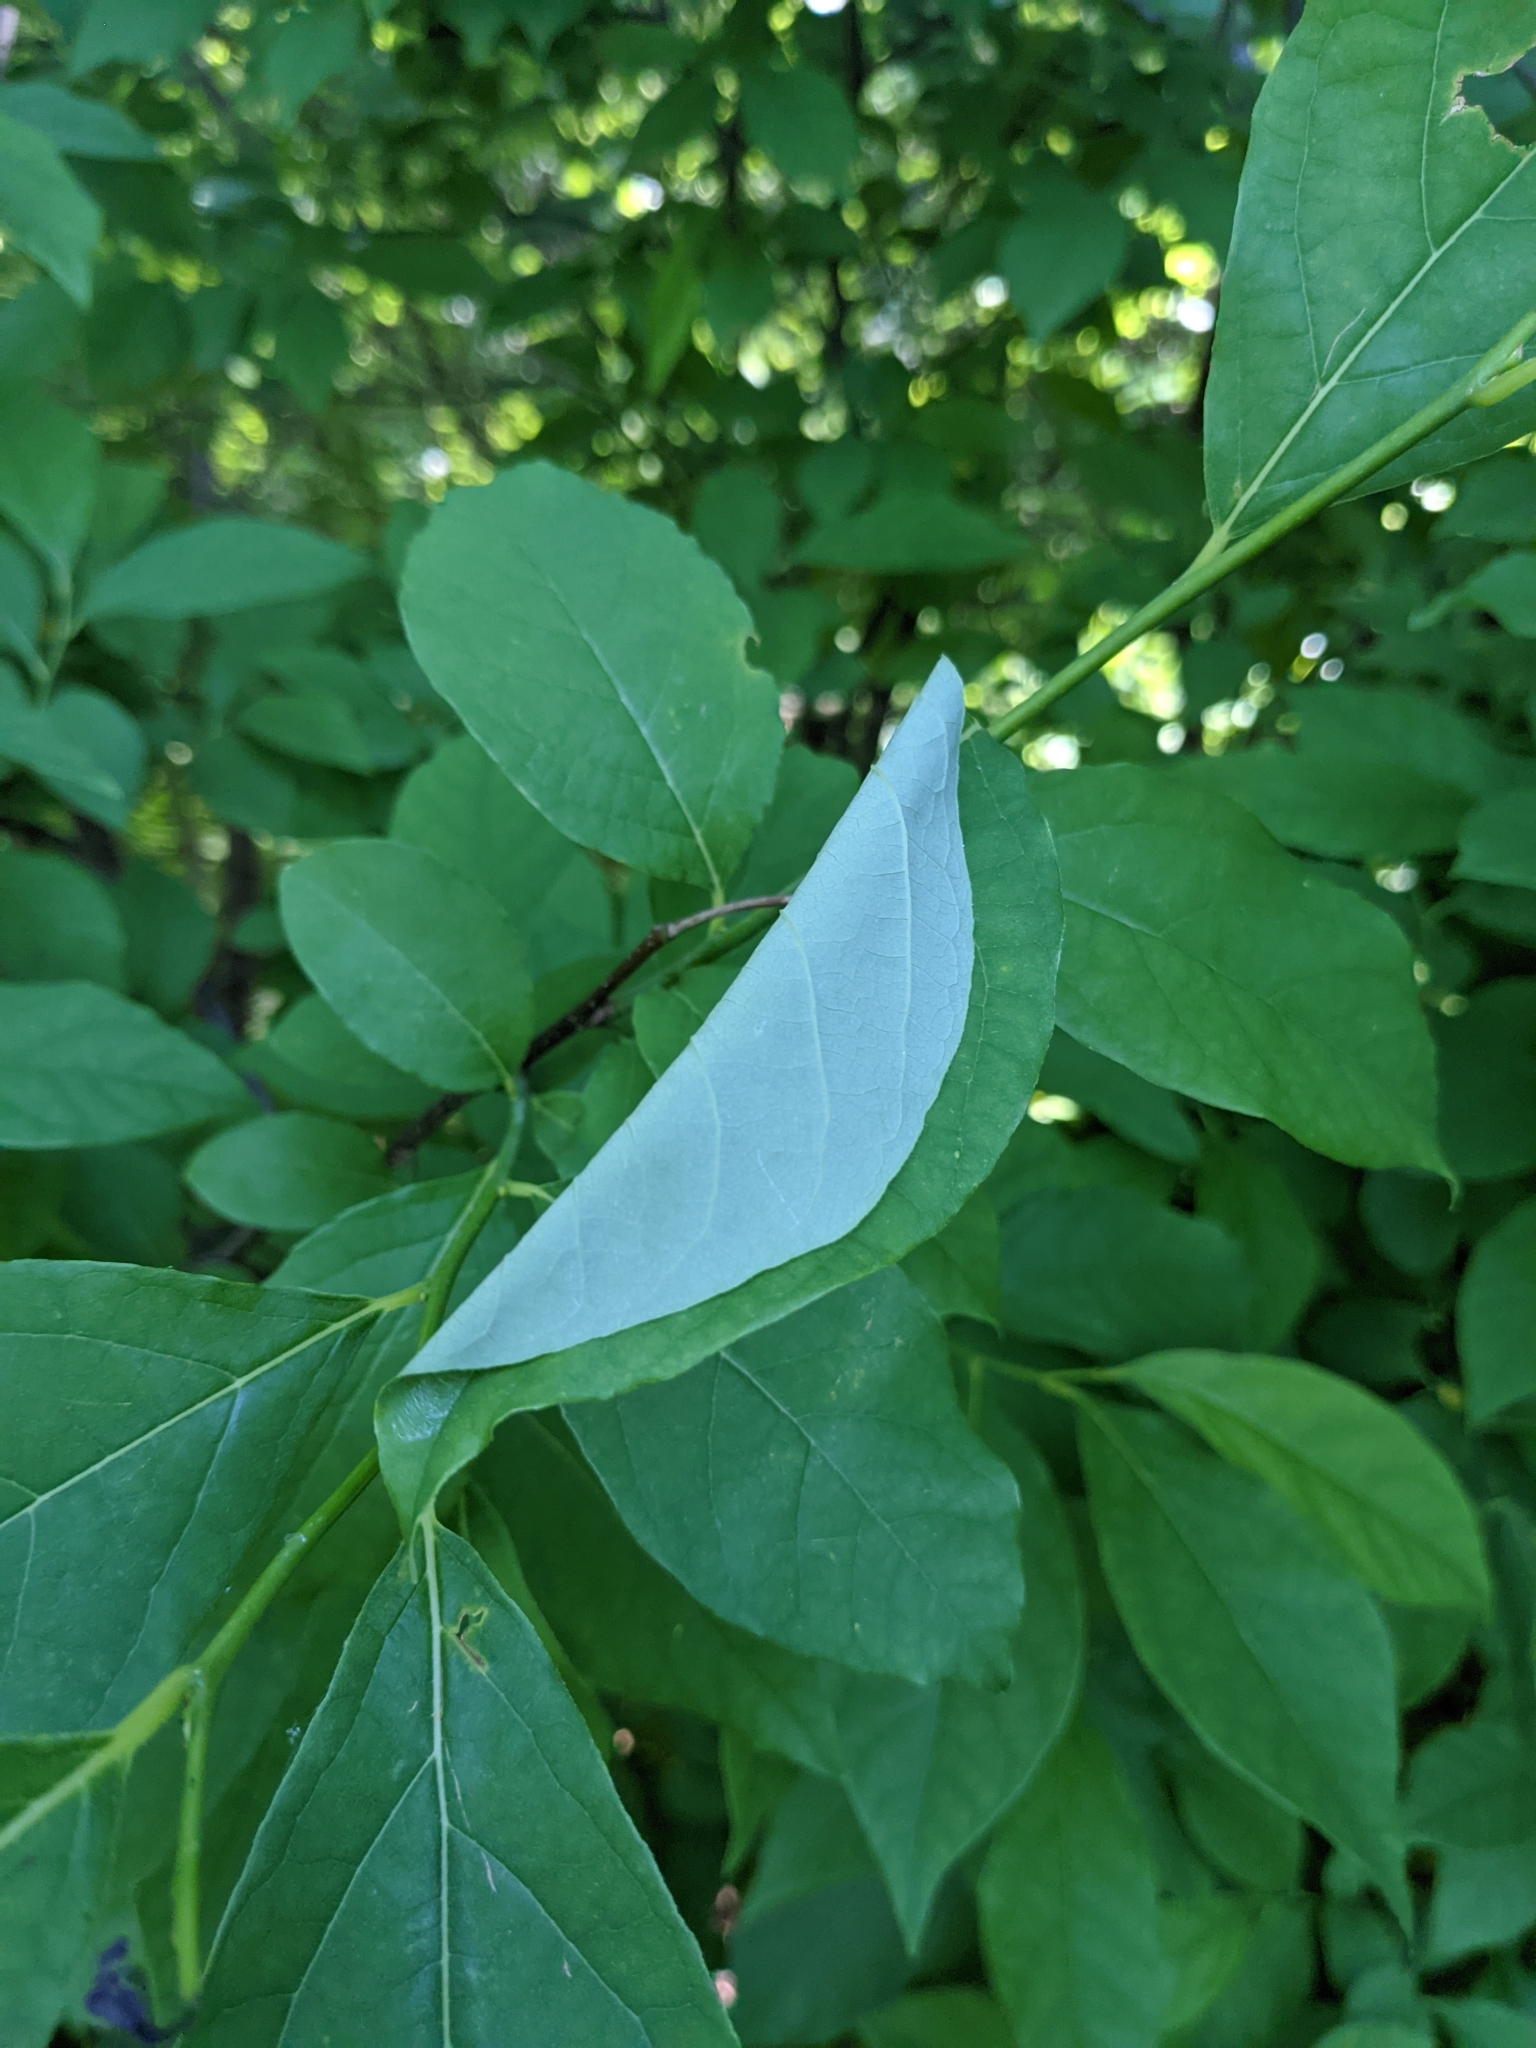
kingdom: Animalia
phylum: Arthropoda
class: Insecta
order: Lepidoptera
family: Papilionidae
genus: Papilio
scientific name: Papilio troilus
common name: Spicebush swallowtail
